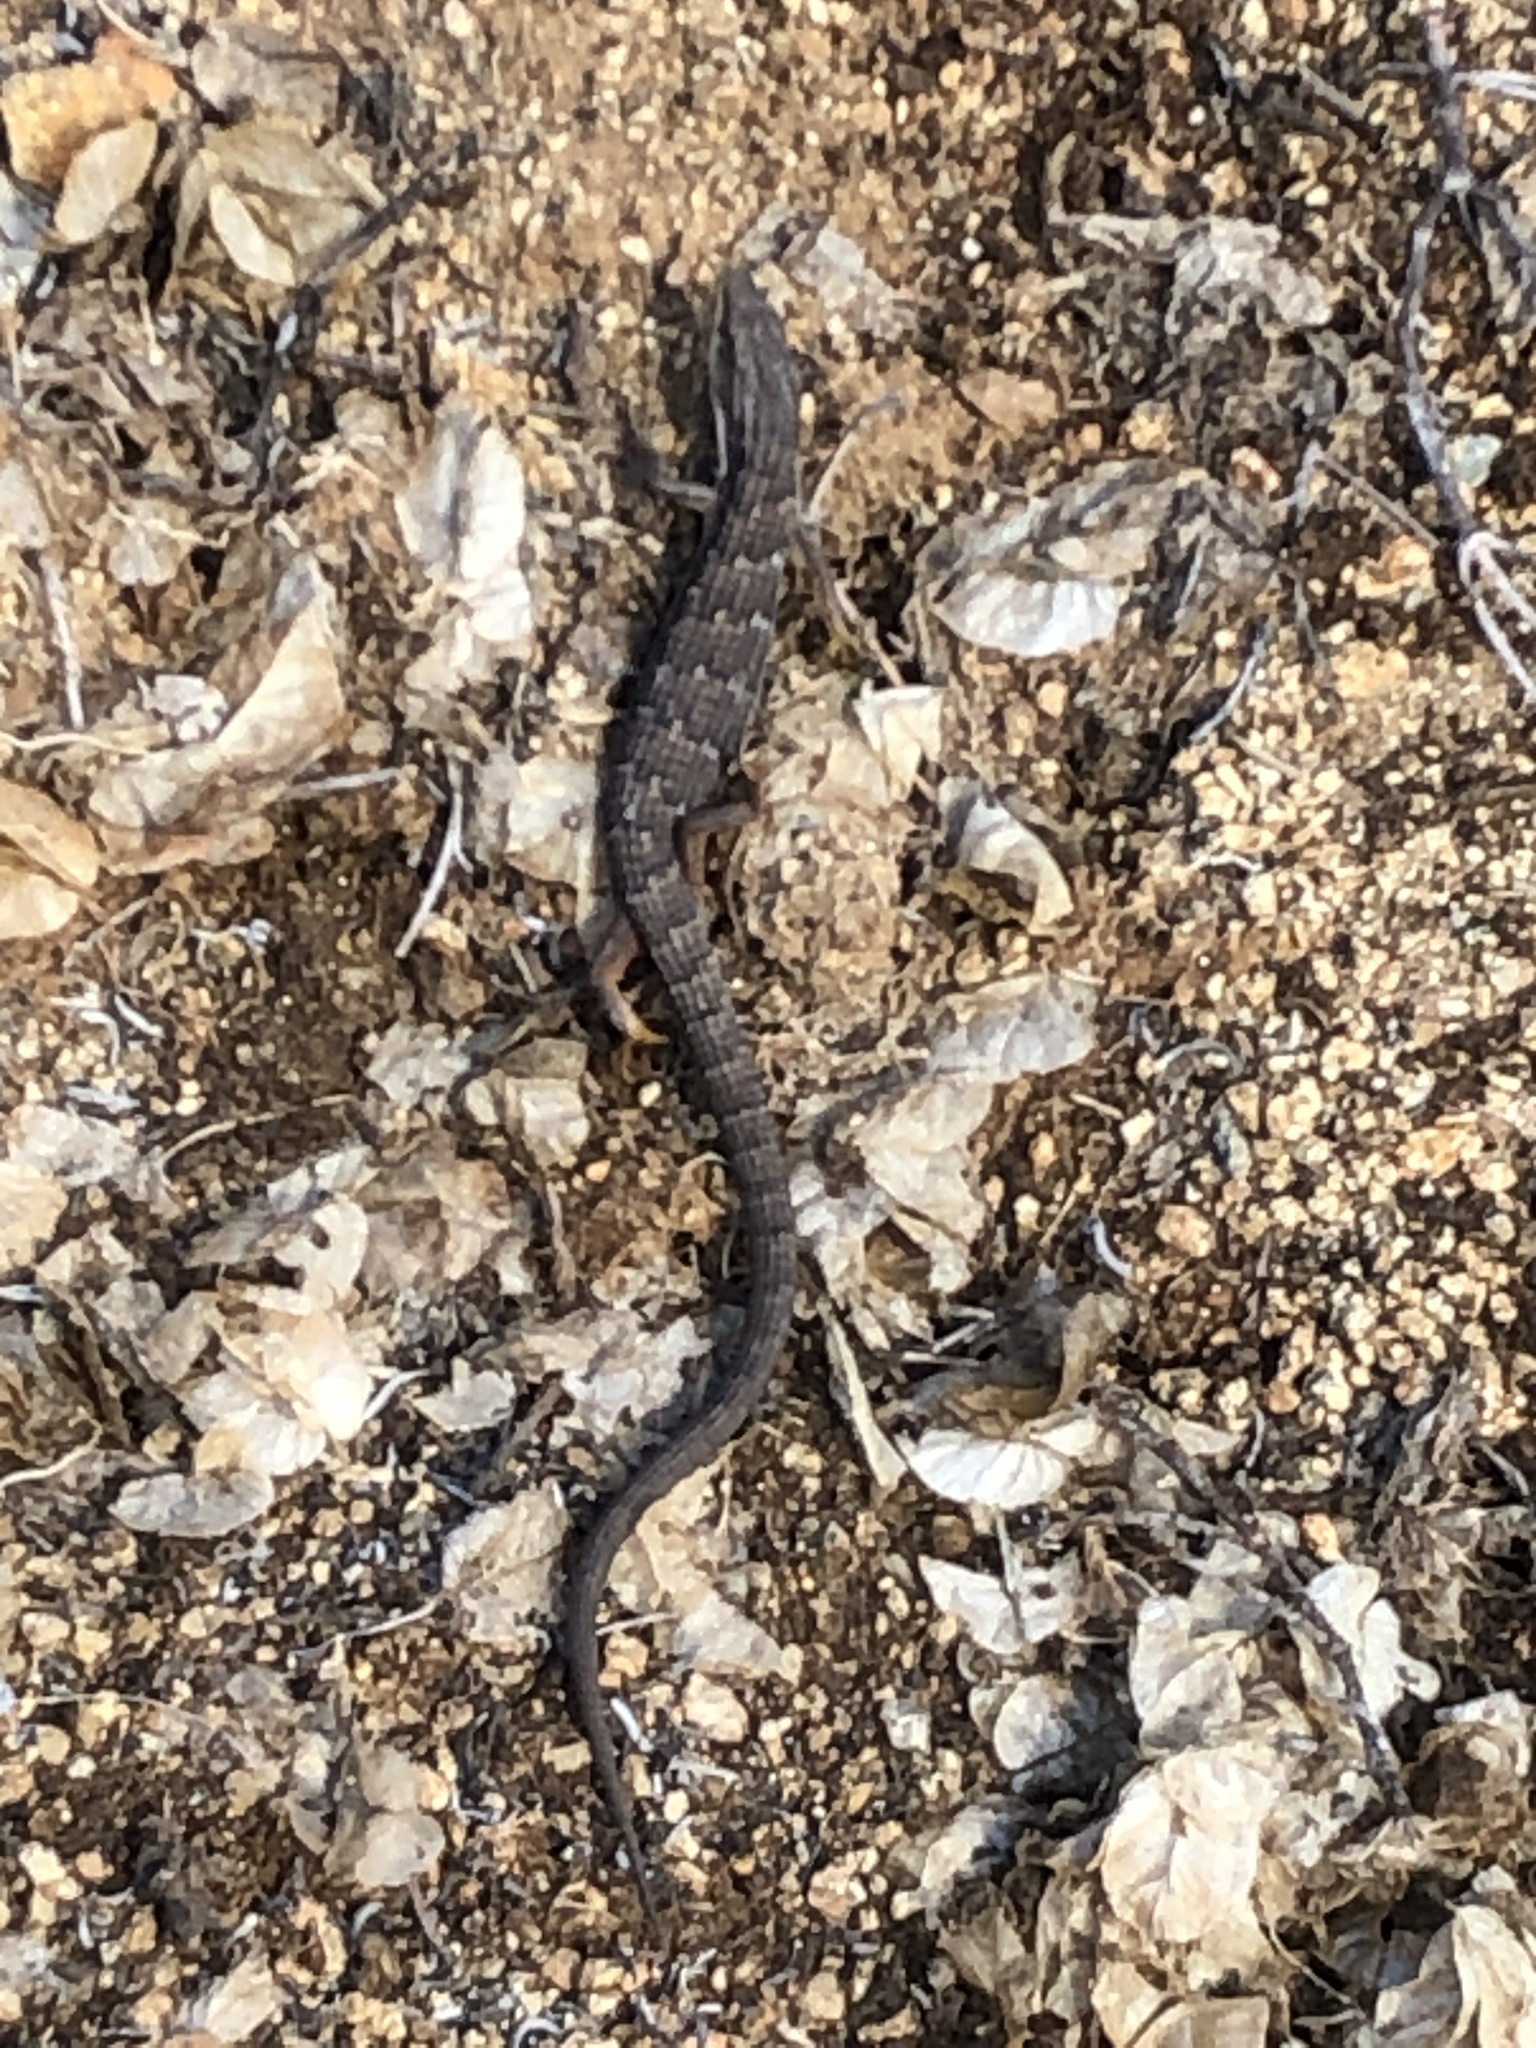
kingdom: Animalia
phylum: Chordata
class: Squamata
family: Anguidae
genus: Elgaria
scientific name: Elgaria multicarinata
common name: Southern alligator lizard
